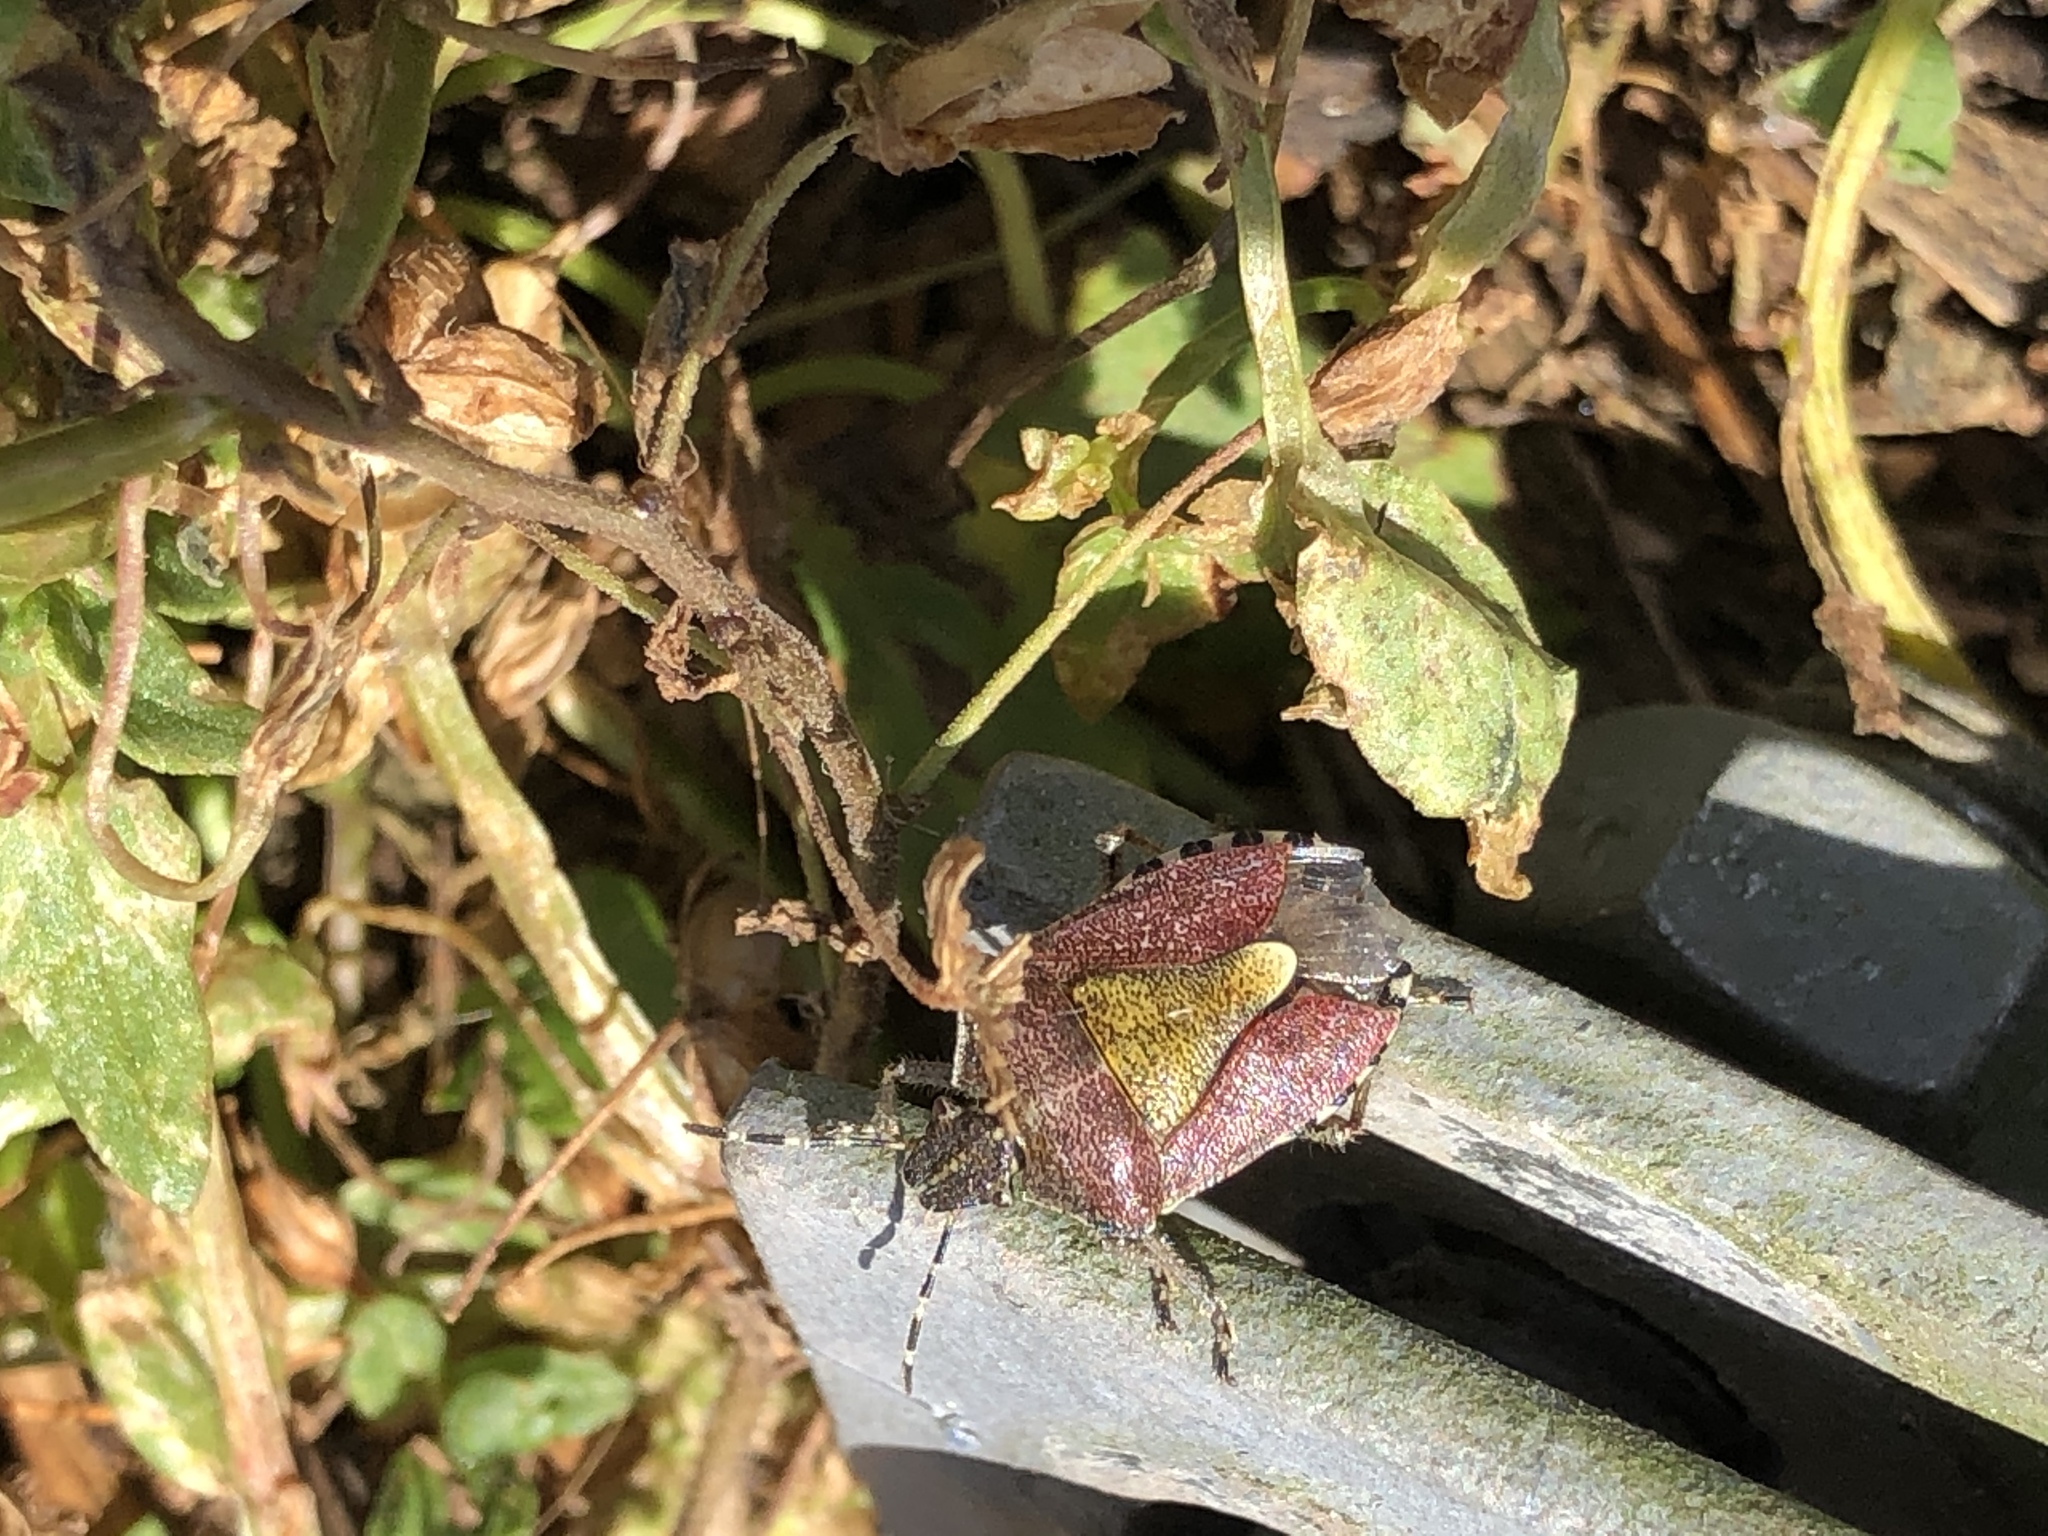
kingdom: Animalia
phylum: Arthropoda
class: Insecta
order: Hemiptera
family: Pentatomidae
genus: Dolycoris
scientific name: Dolycoris baccarum
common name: Sloe bug
